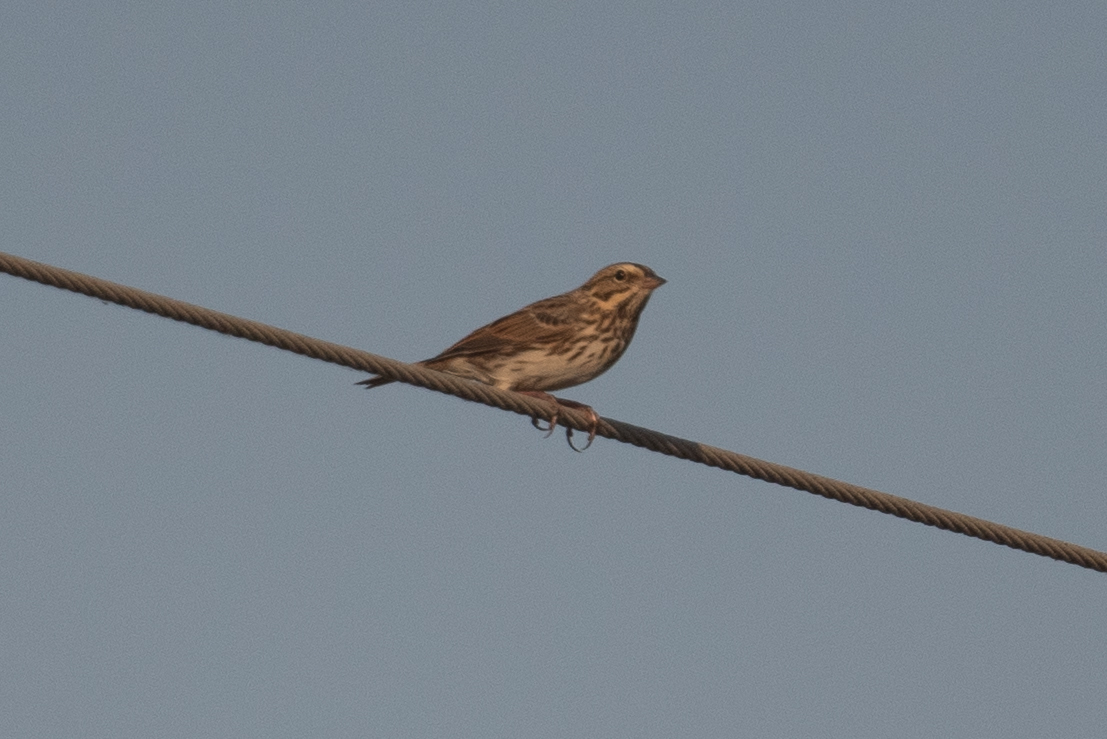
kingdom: Animalia
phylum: Chordata
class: Aves
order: Passeriformes
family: Passerellidae
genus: Passerculus
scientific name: Passerculus sandwichensis
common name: Savannah sparrow
